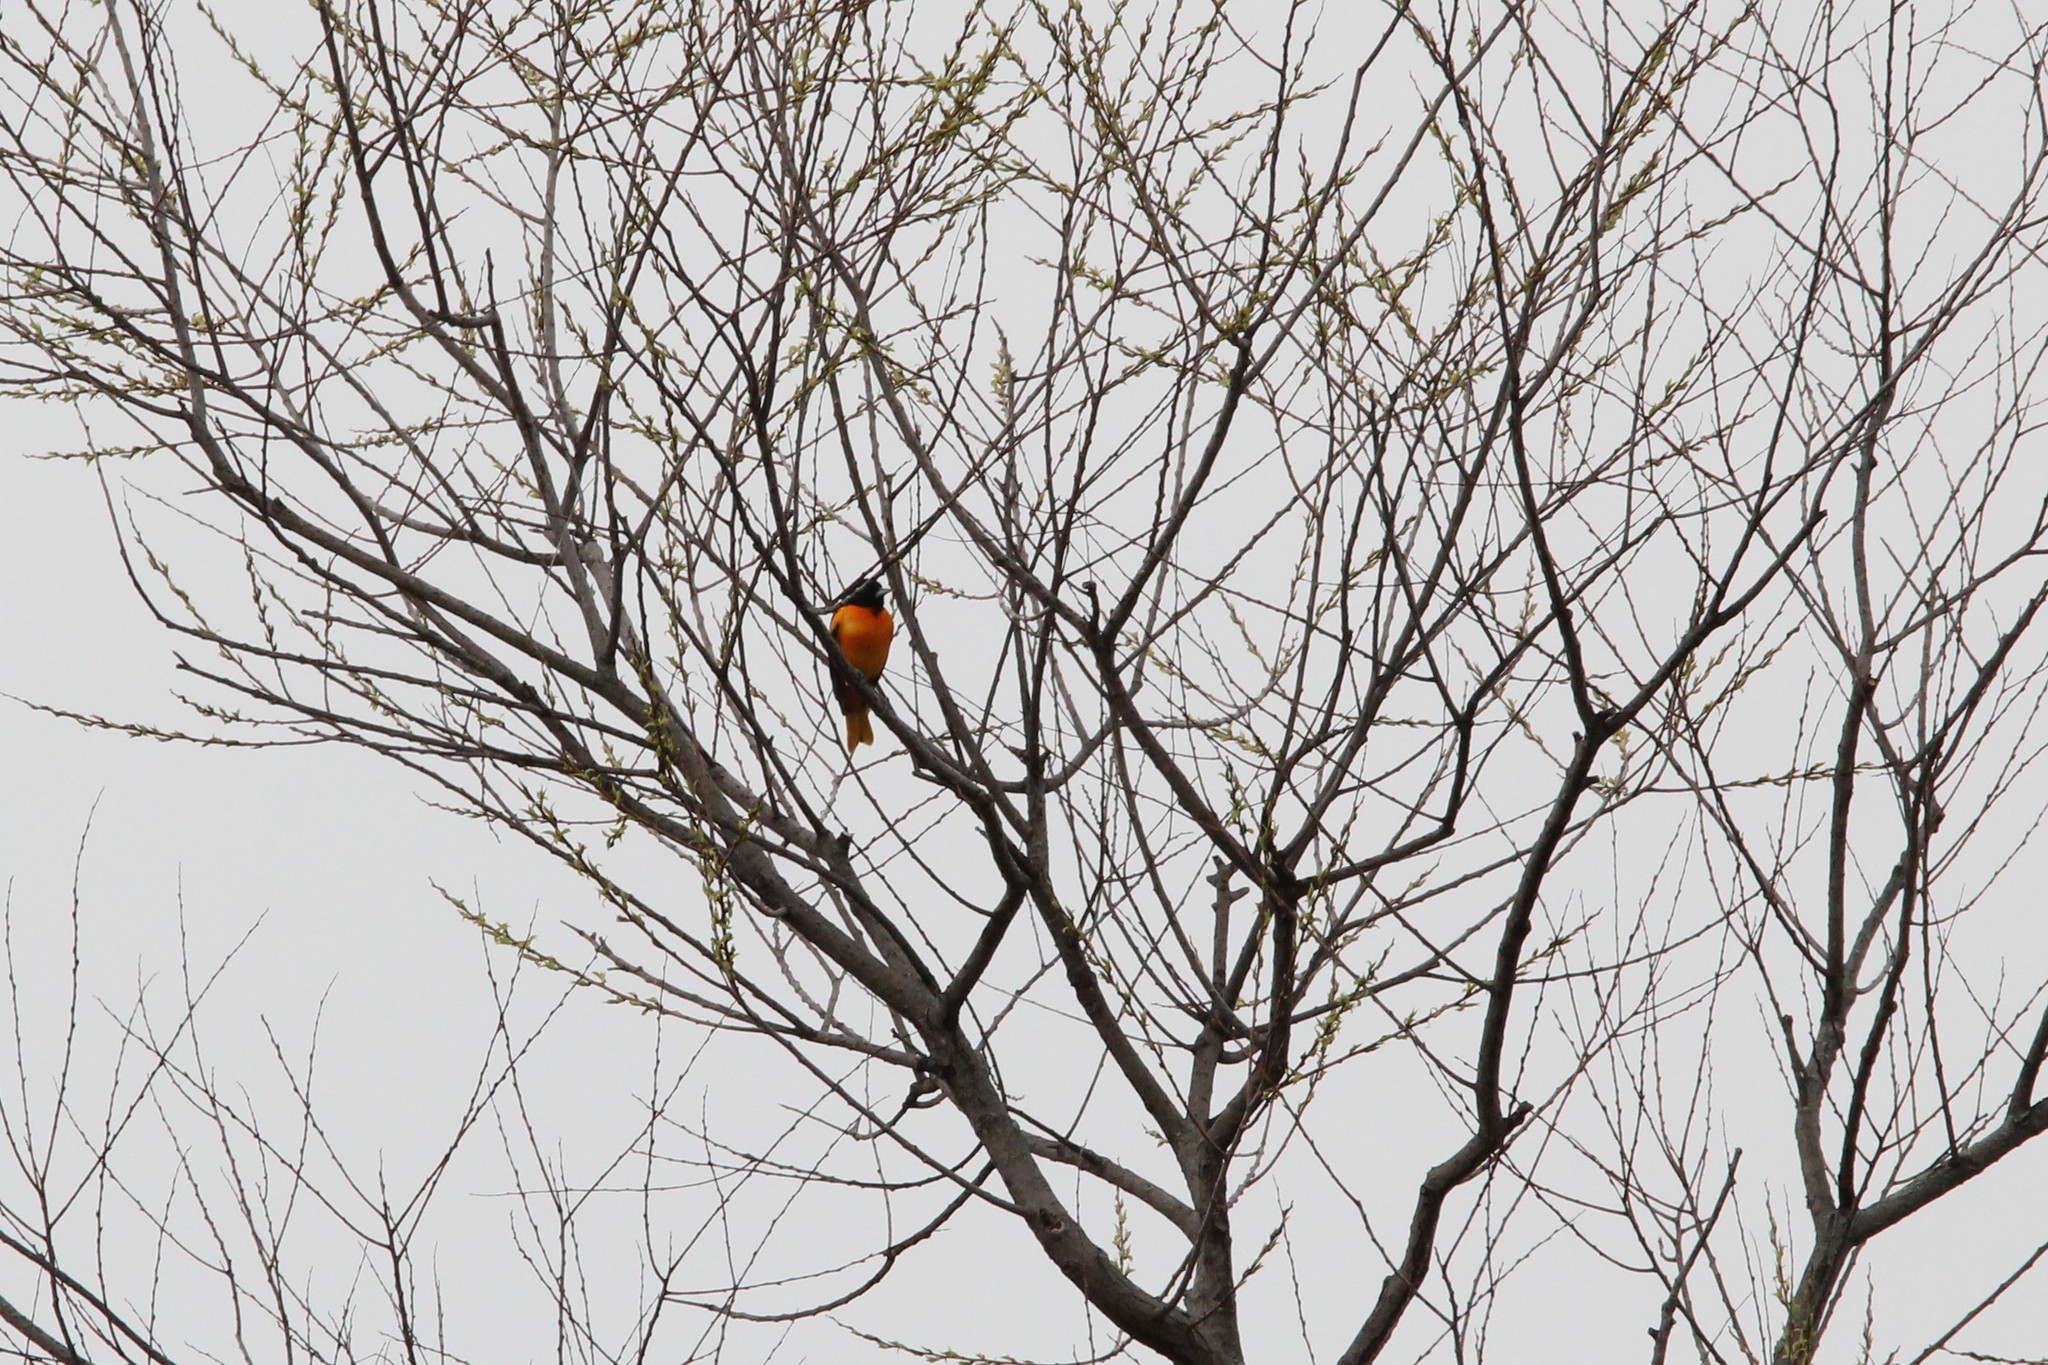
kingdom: Animalia
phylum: Chordata
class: Aves
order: Passeriformes
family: Icteridae
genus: Icterus
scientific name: Icterus galbula
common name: Baltimore oriole
